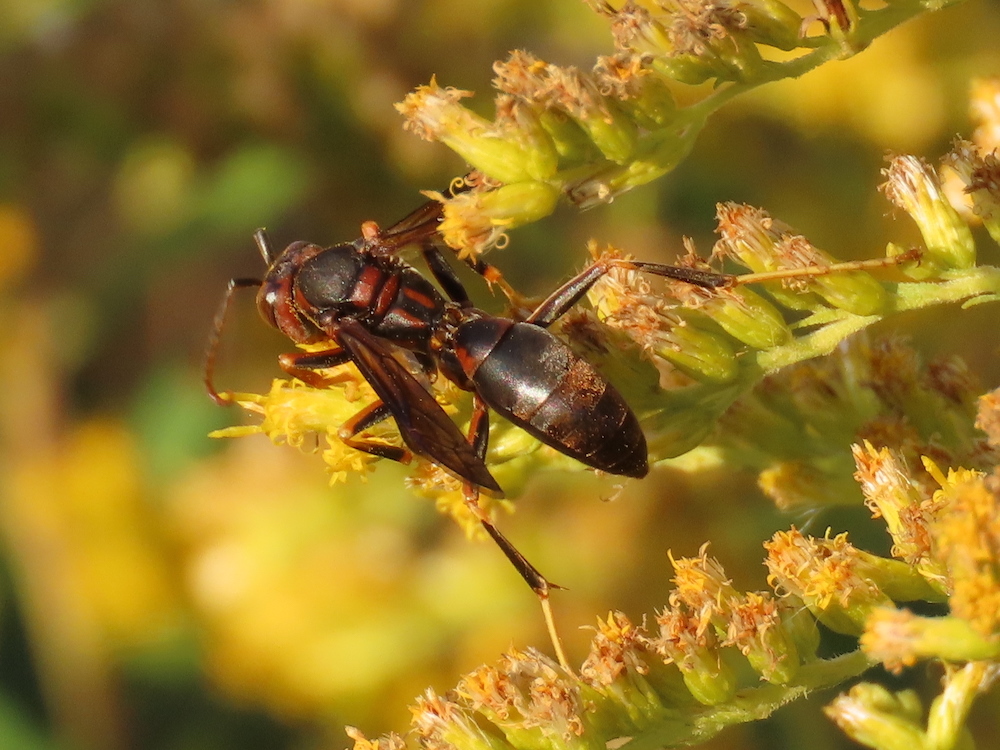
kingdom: Animalia
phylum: Arthropoda
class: Insecta
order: Hymenoptera
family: Eumenidae
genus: Polistes
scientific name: Polistes metricus
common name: Metric paper wasp
